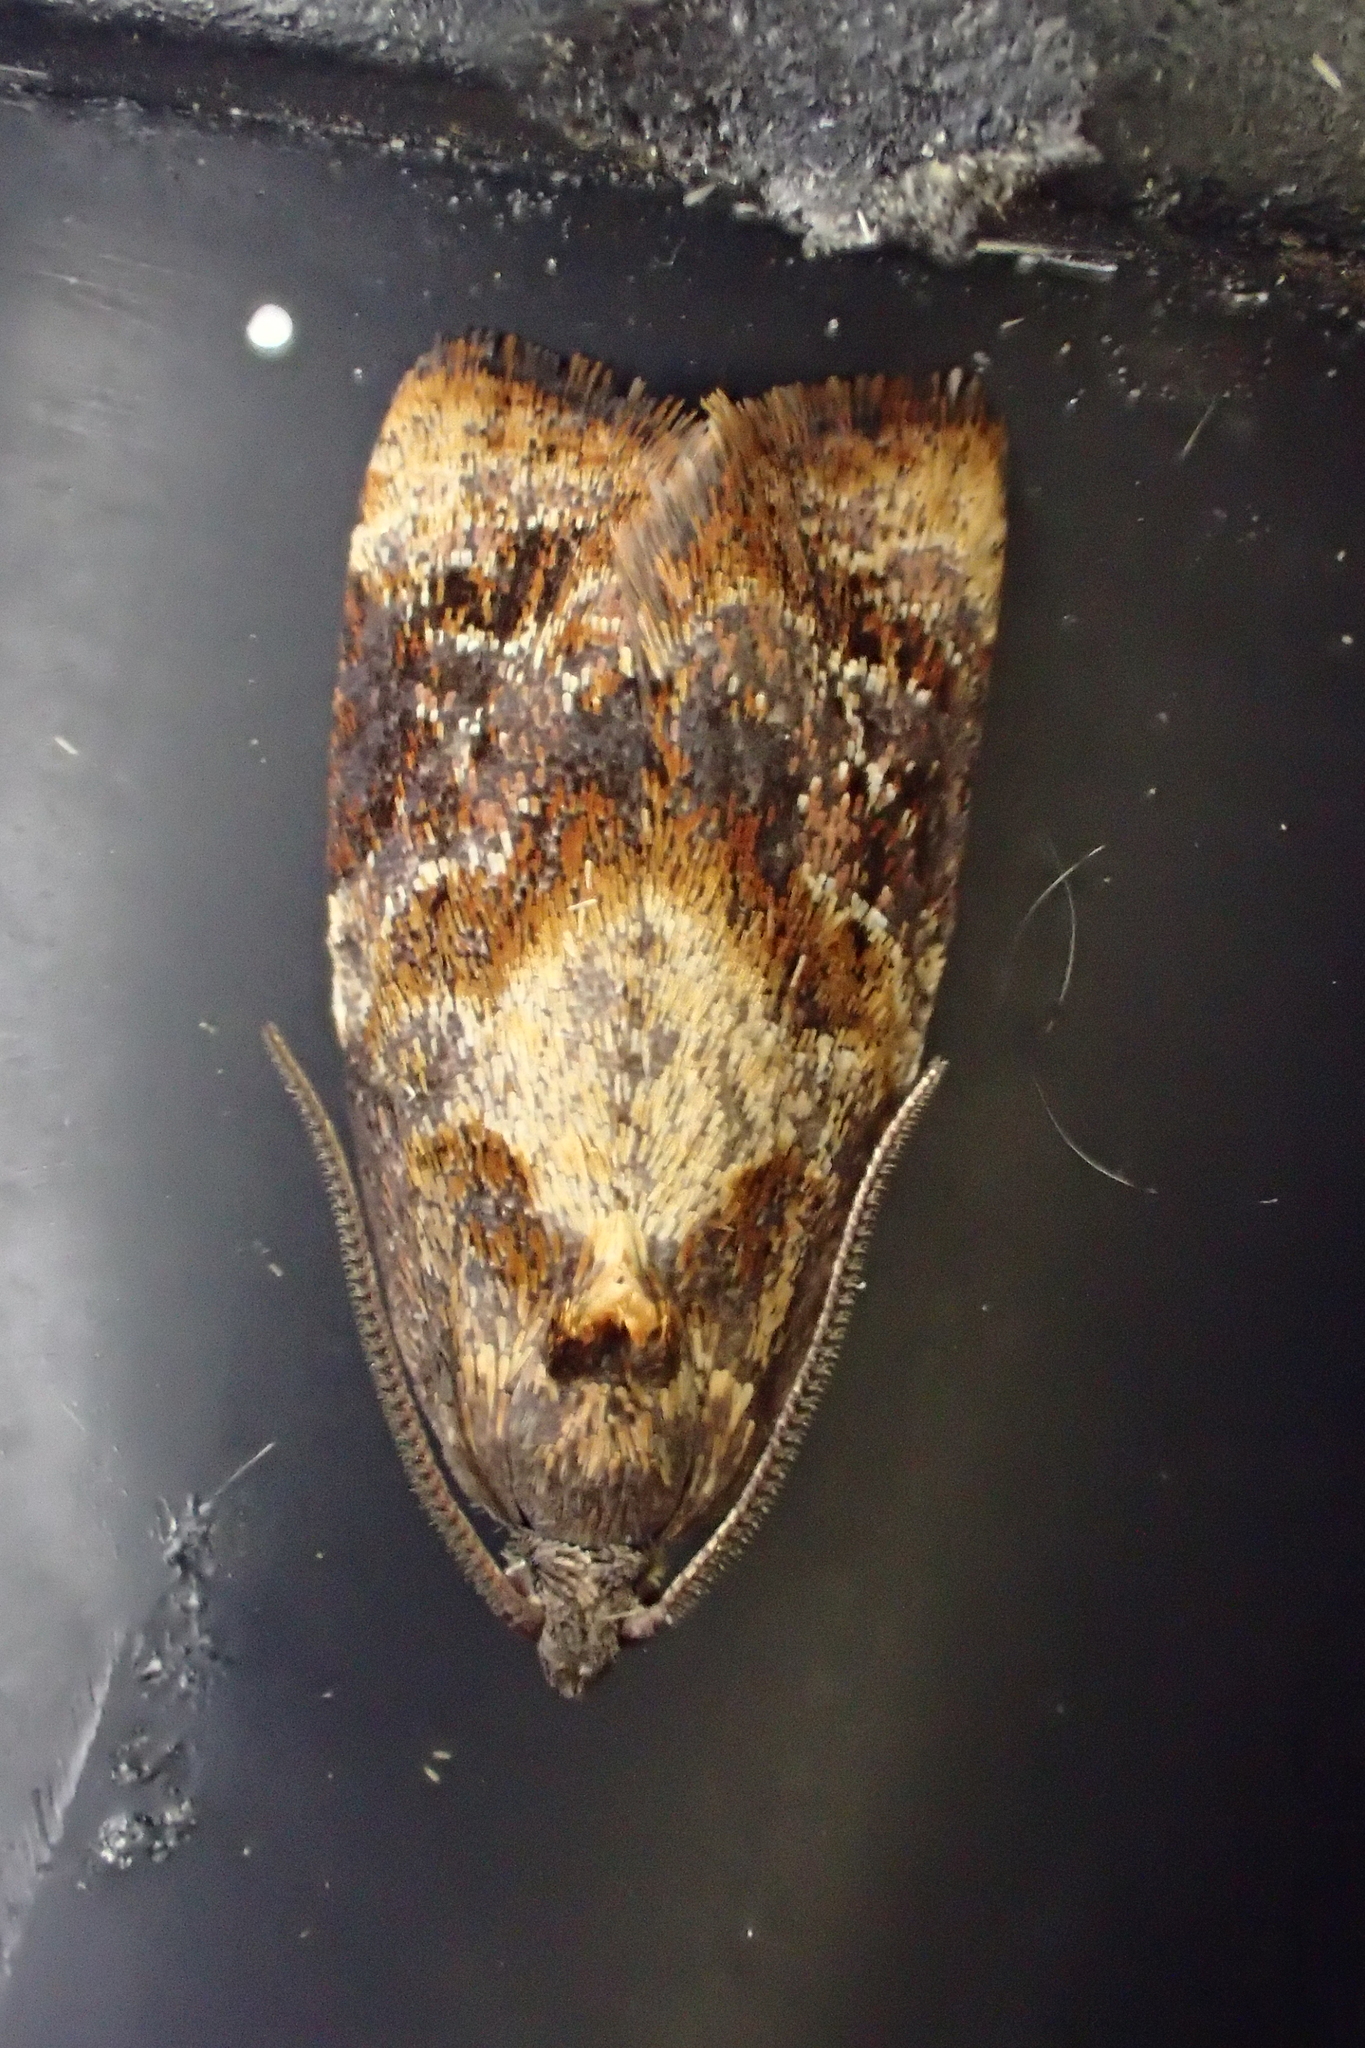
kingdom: Animalia
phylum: Arthropoda
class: Insecta
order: Lepidoptera
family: Tortricidae
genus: Ditula
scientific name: Ditula angustiorana
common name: Red-barred tortrix
